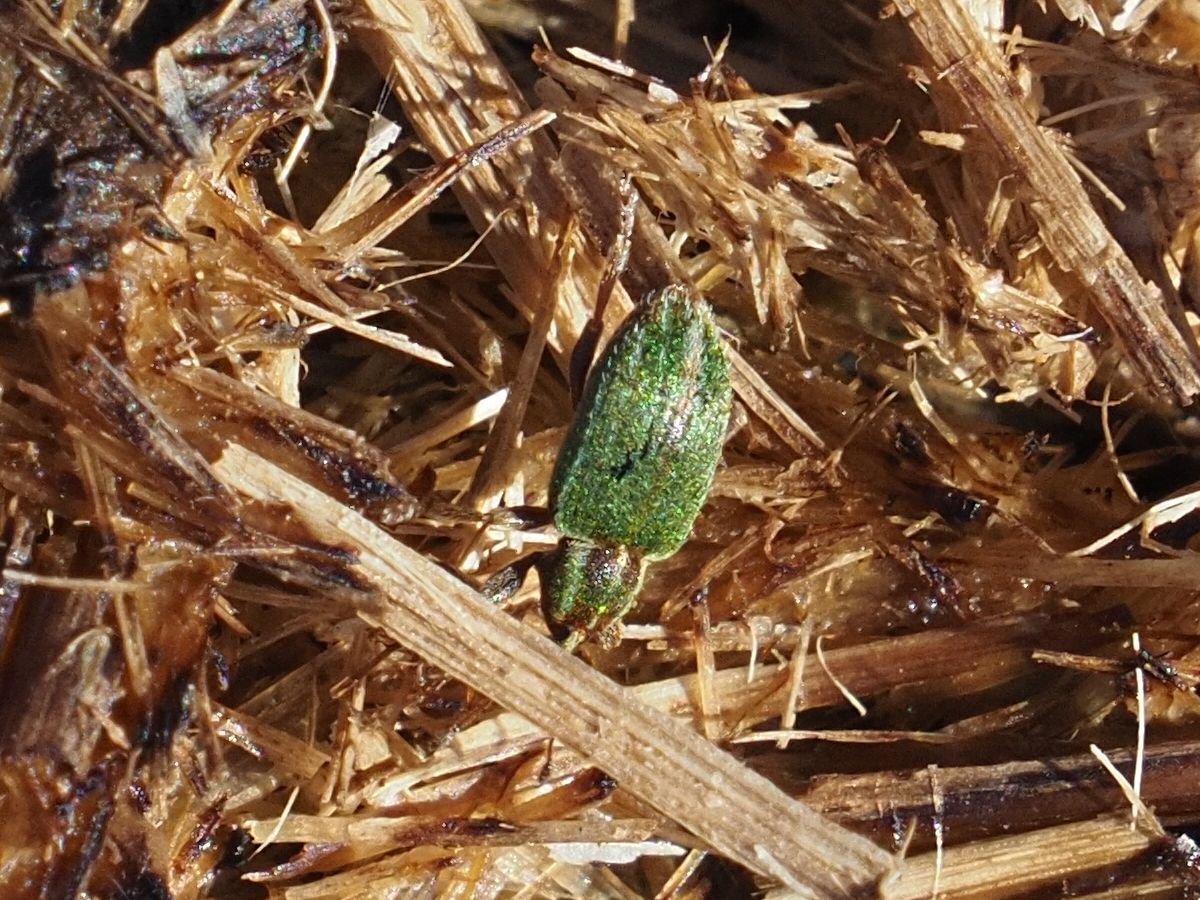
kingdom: Animalia
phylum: Arthropoda
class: Insecta
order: Coleoptera
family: Curculionidae
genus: Hypera
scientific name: Hypera nigrirostris
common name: Black-beaked green weevil
